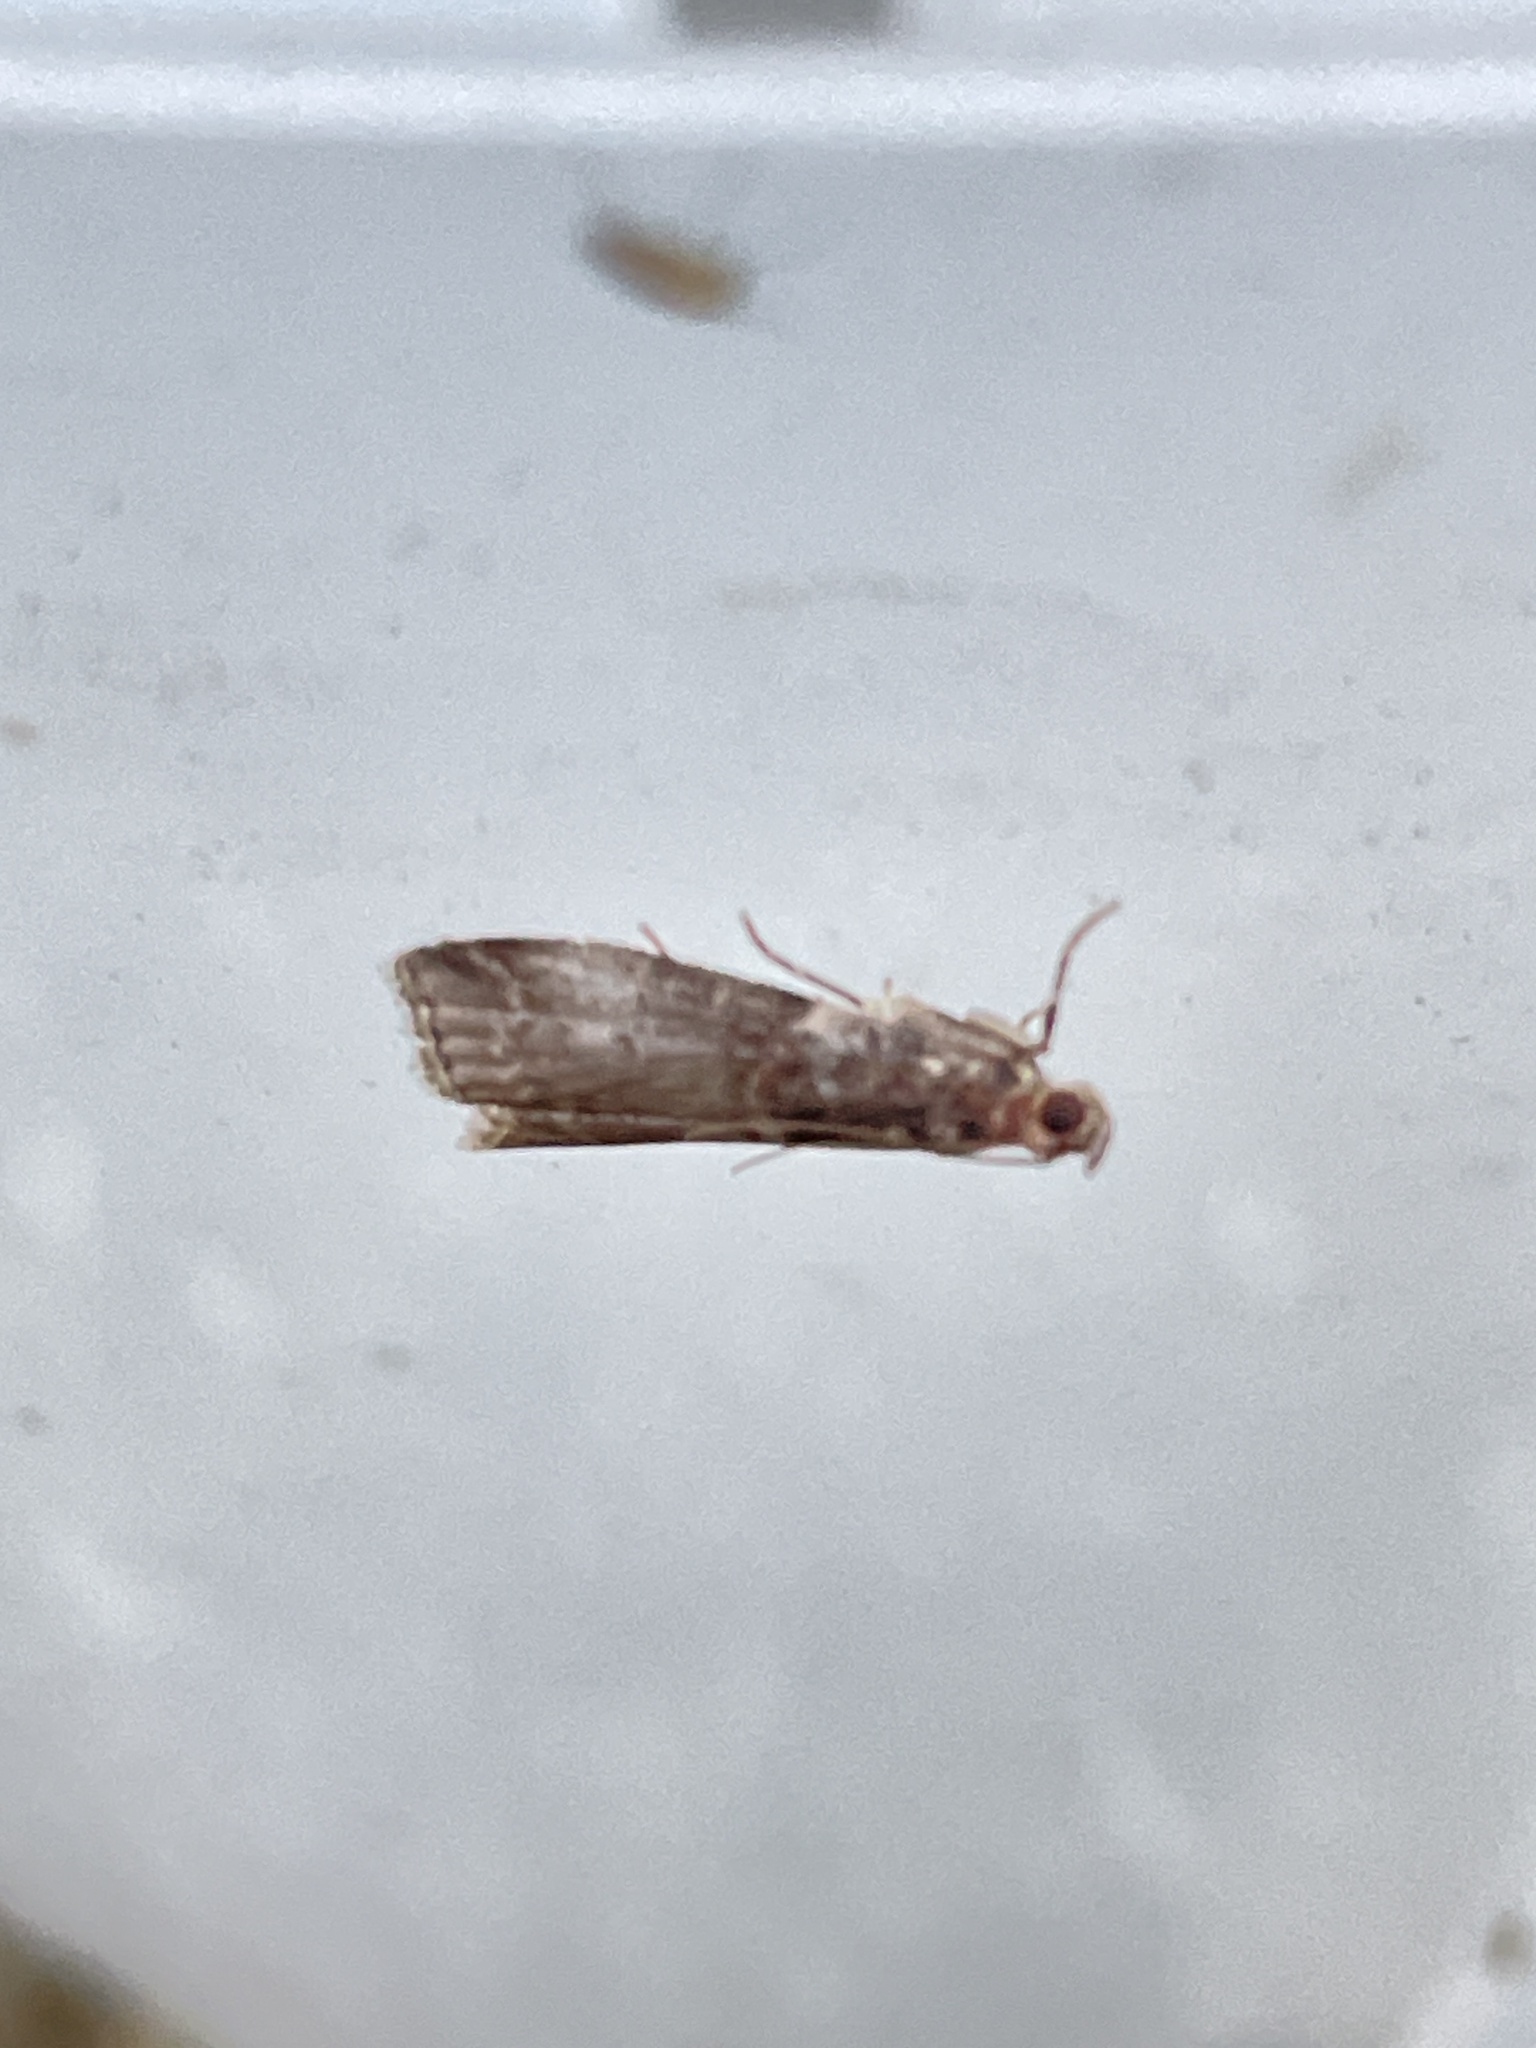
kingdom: Animalia
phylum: Arthropoda
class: Insecta
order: Lepidoptera
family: Pyralidae
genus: Acrobasis
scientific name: Acrobasis advenella
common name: Grey knot-horn
